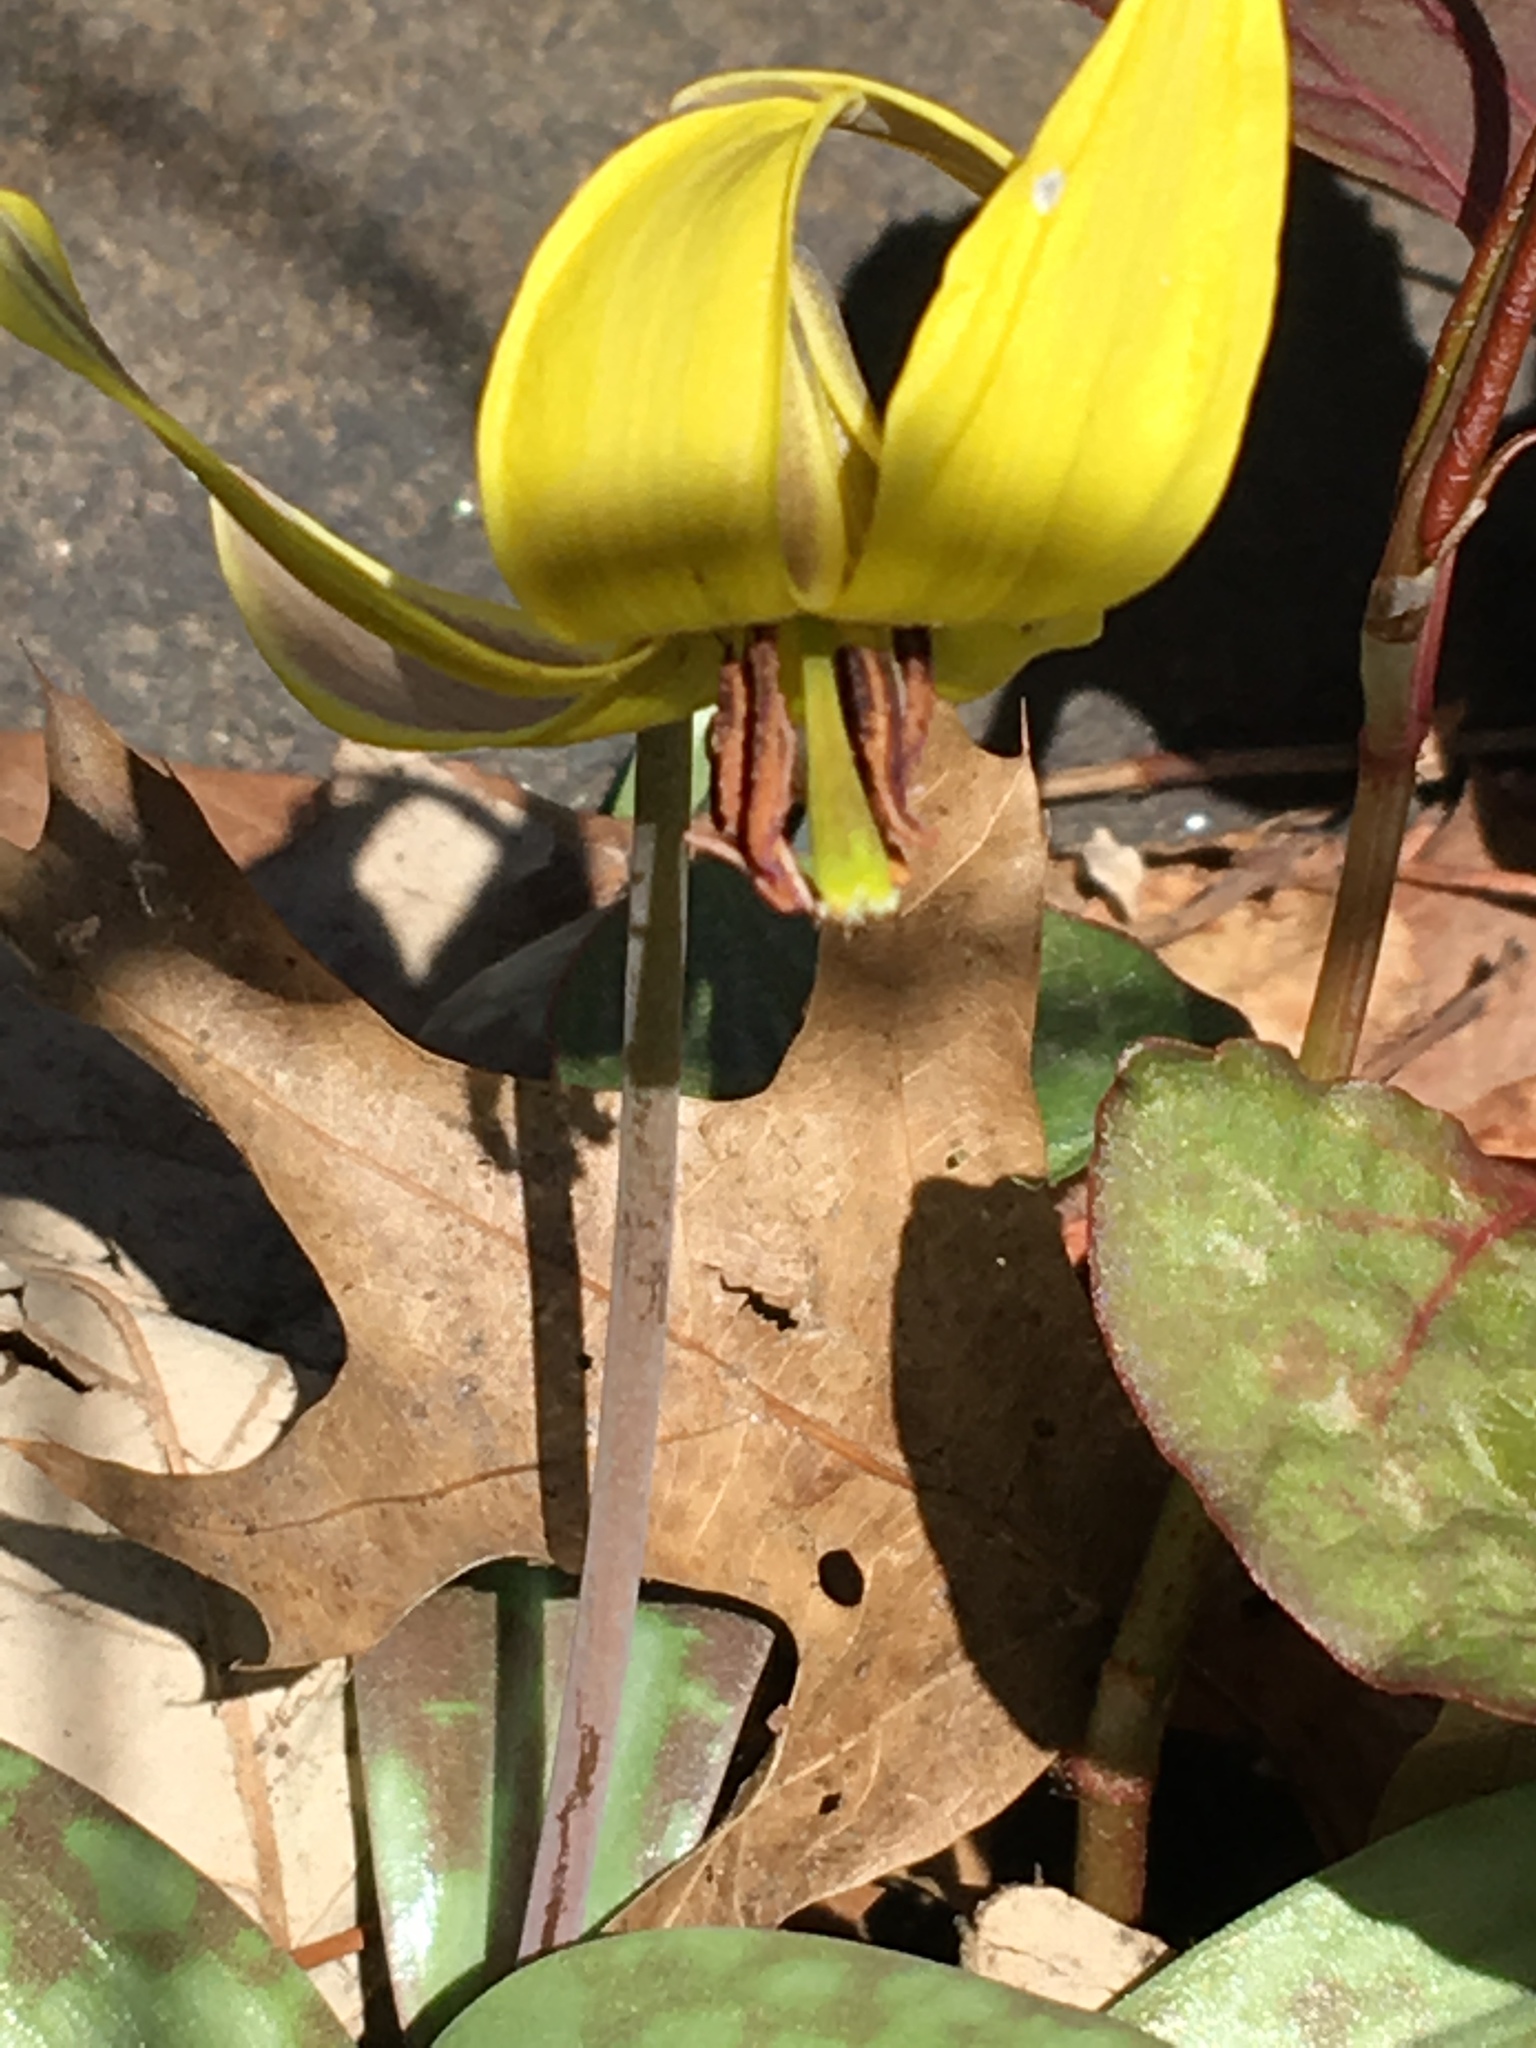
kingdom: Plantae
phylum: Tracheophyta
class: Liliopsida
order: Liliales
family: Liliaceae
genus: Erythronium
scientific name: Erythronium americanum
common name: Yellow adder's-tongue
